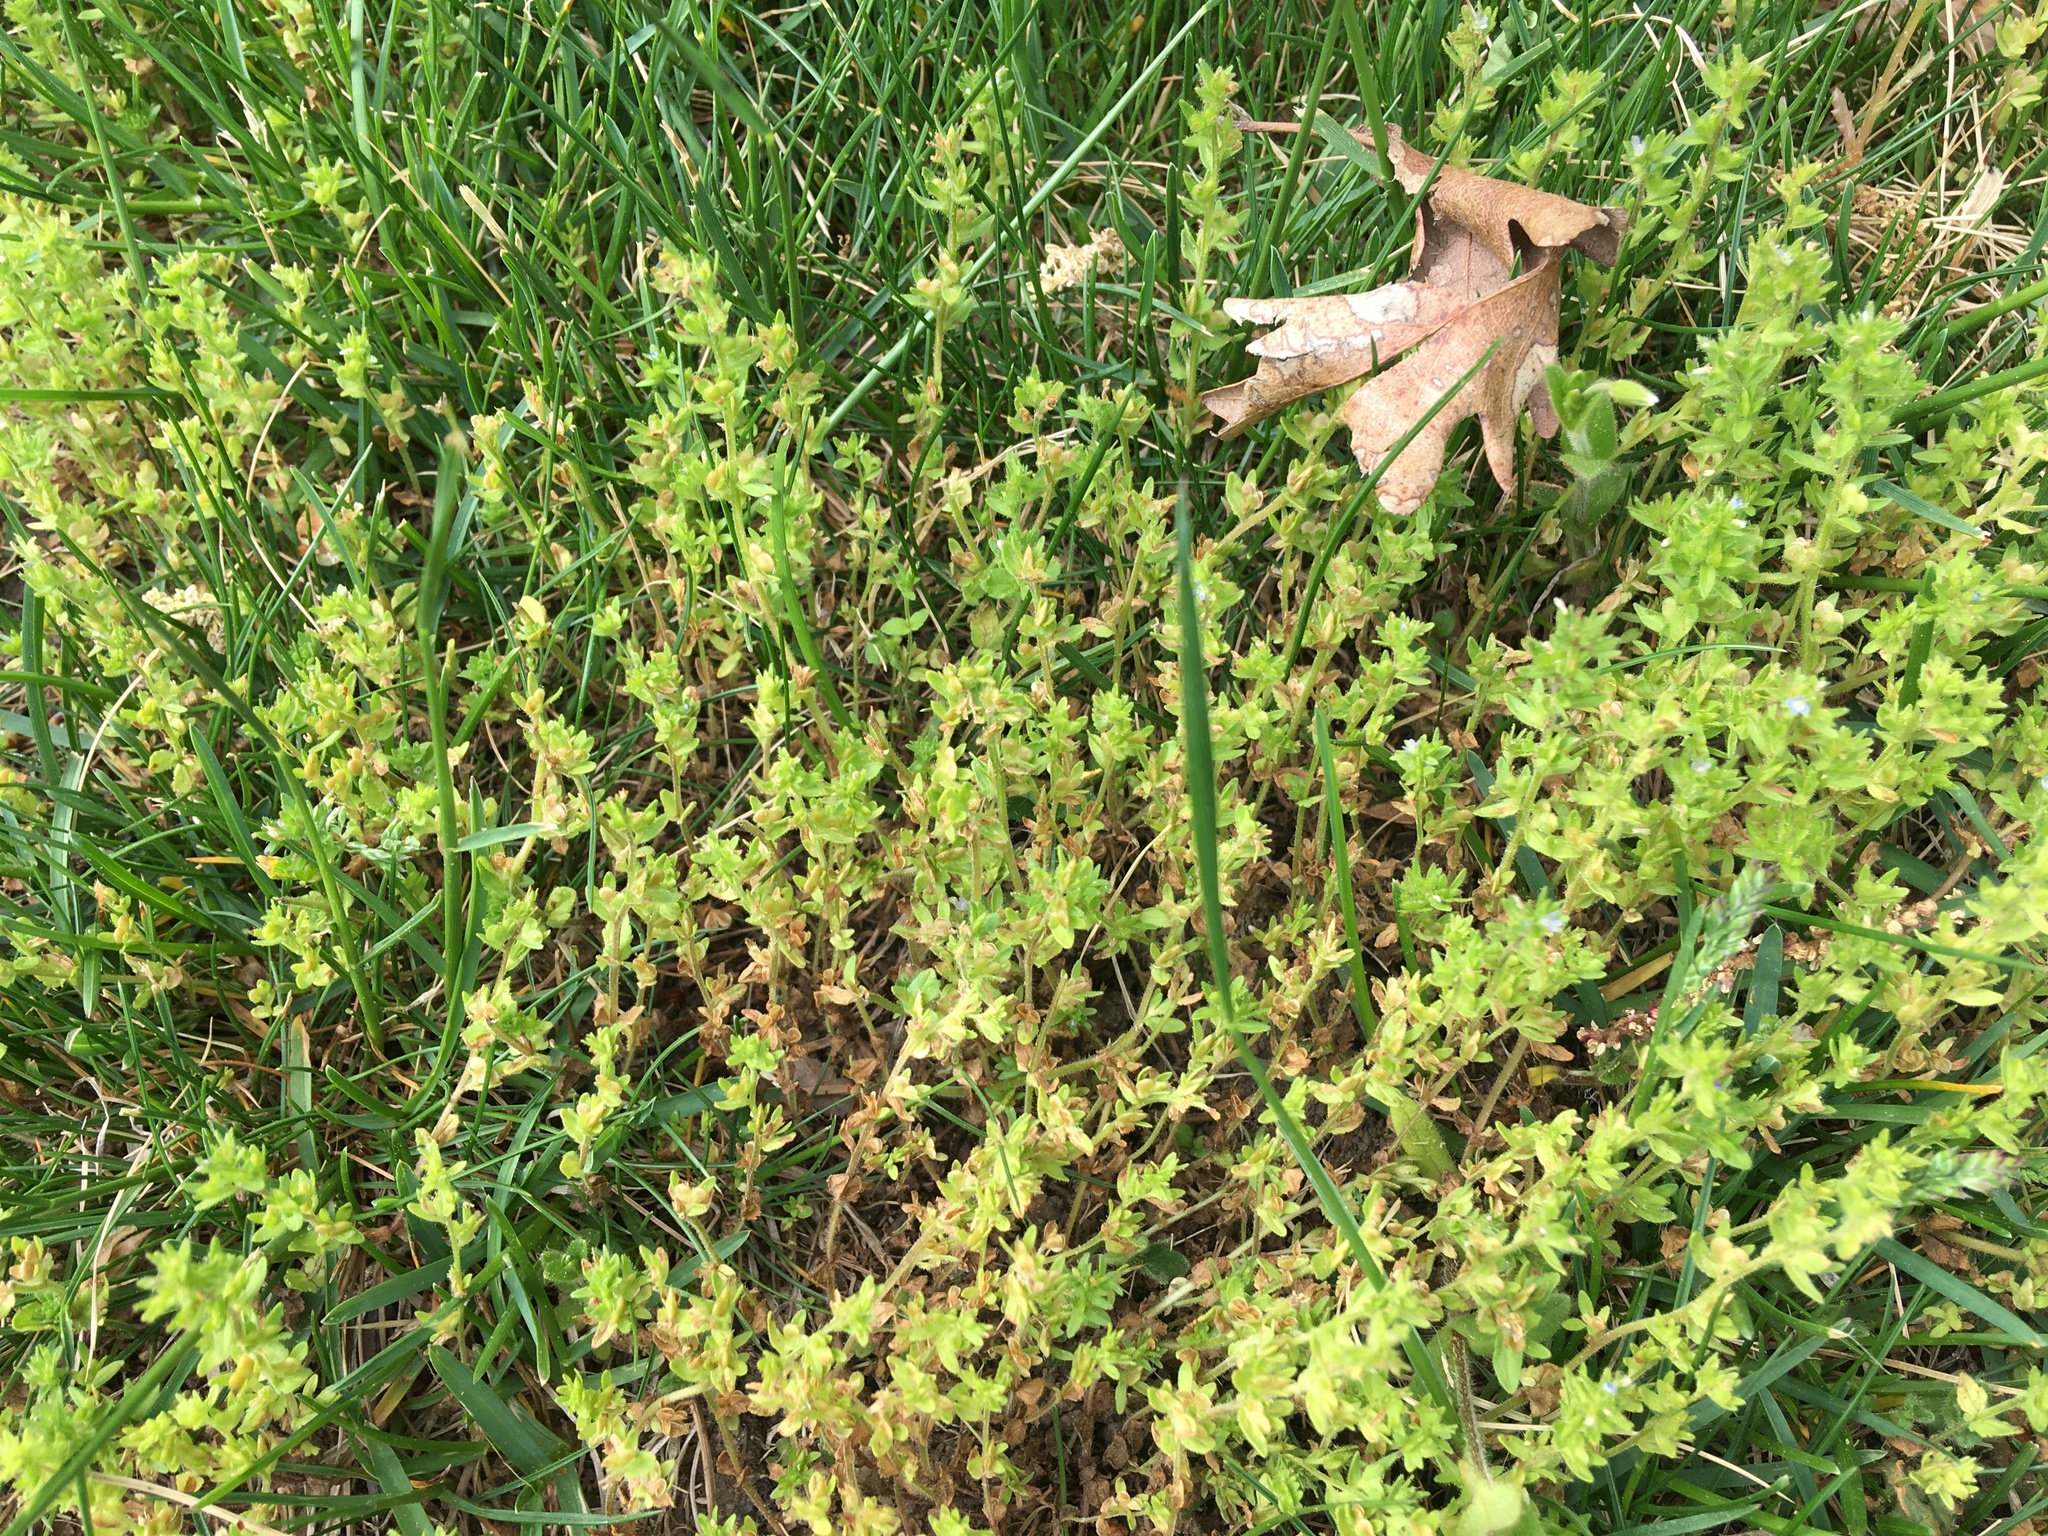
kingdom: Plantae
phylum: Tracheophyta
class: Magnoliopsida
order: Lamiales
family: Plantaginaceae
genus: Veronica
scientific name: Veronica arvensis
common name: Corn speedwell
